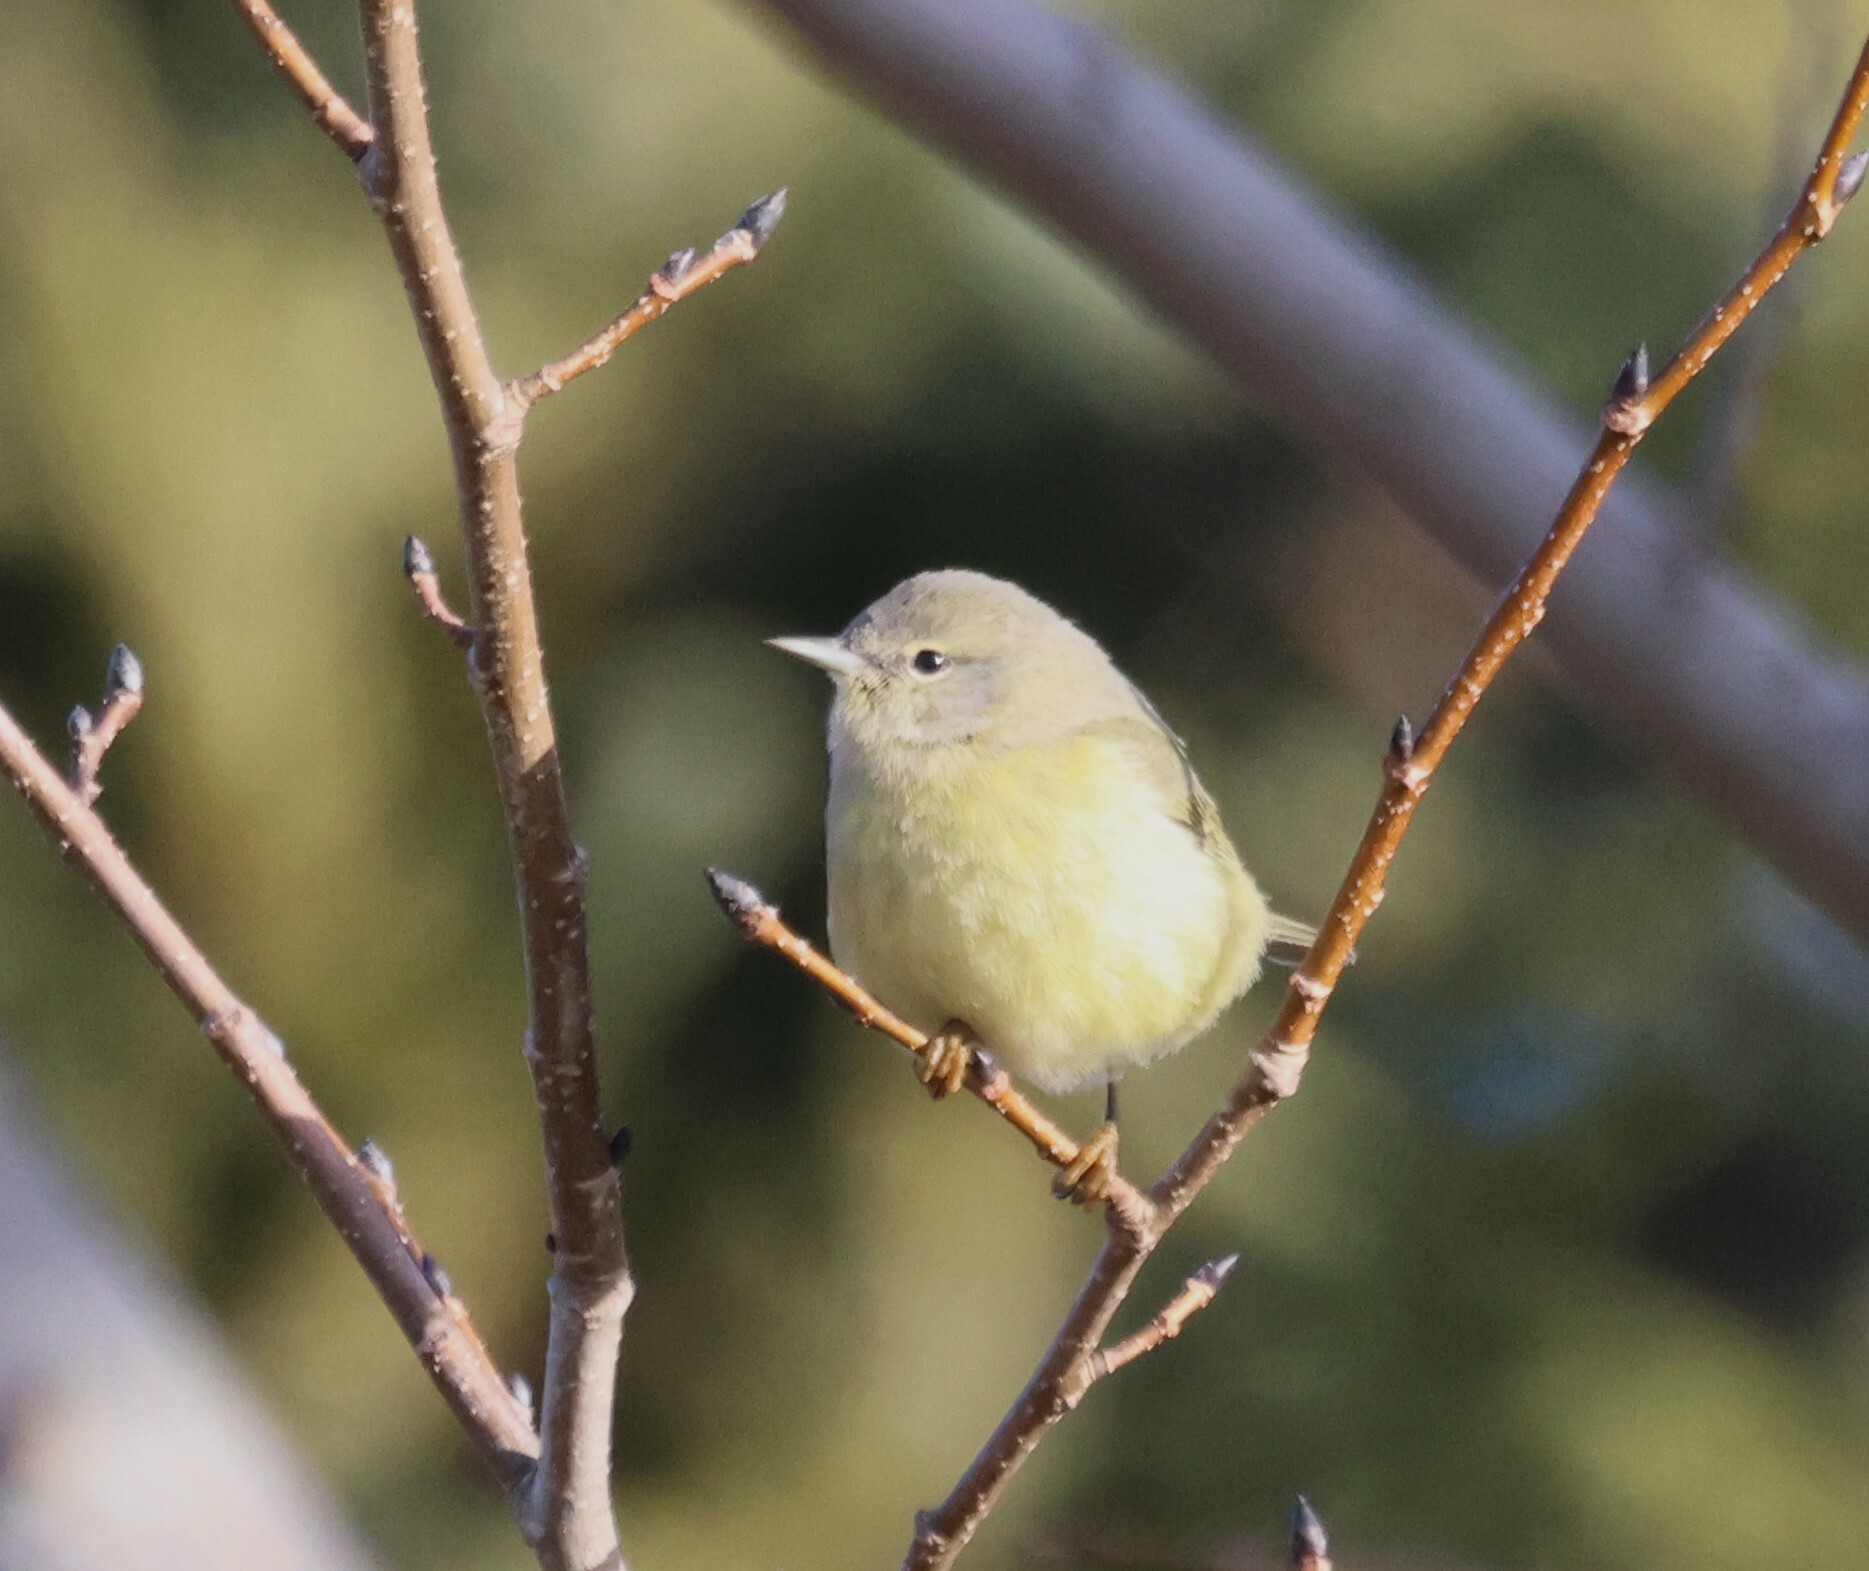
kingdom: Animalia
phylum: Chordata
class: Aves
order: Passeriformes
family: Parulidae
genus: Leiothlypis
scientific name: Leiothlypis celata
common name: Orange-crowned warbler
